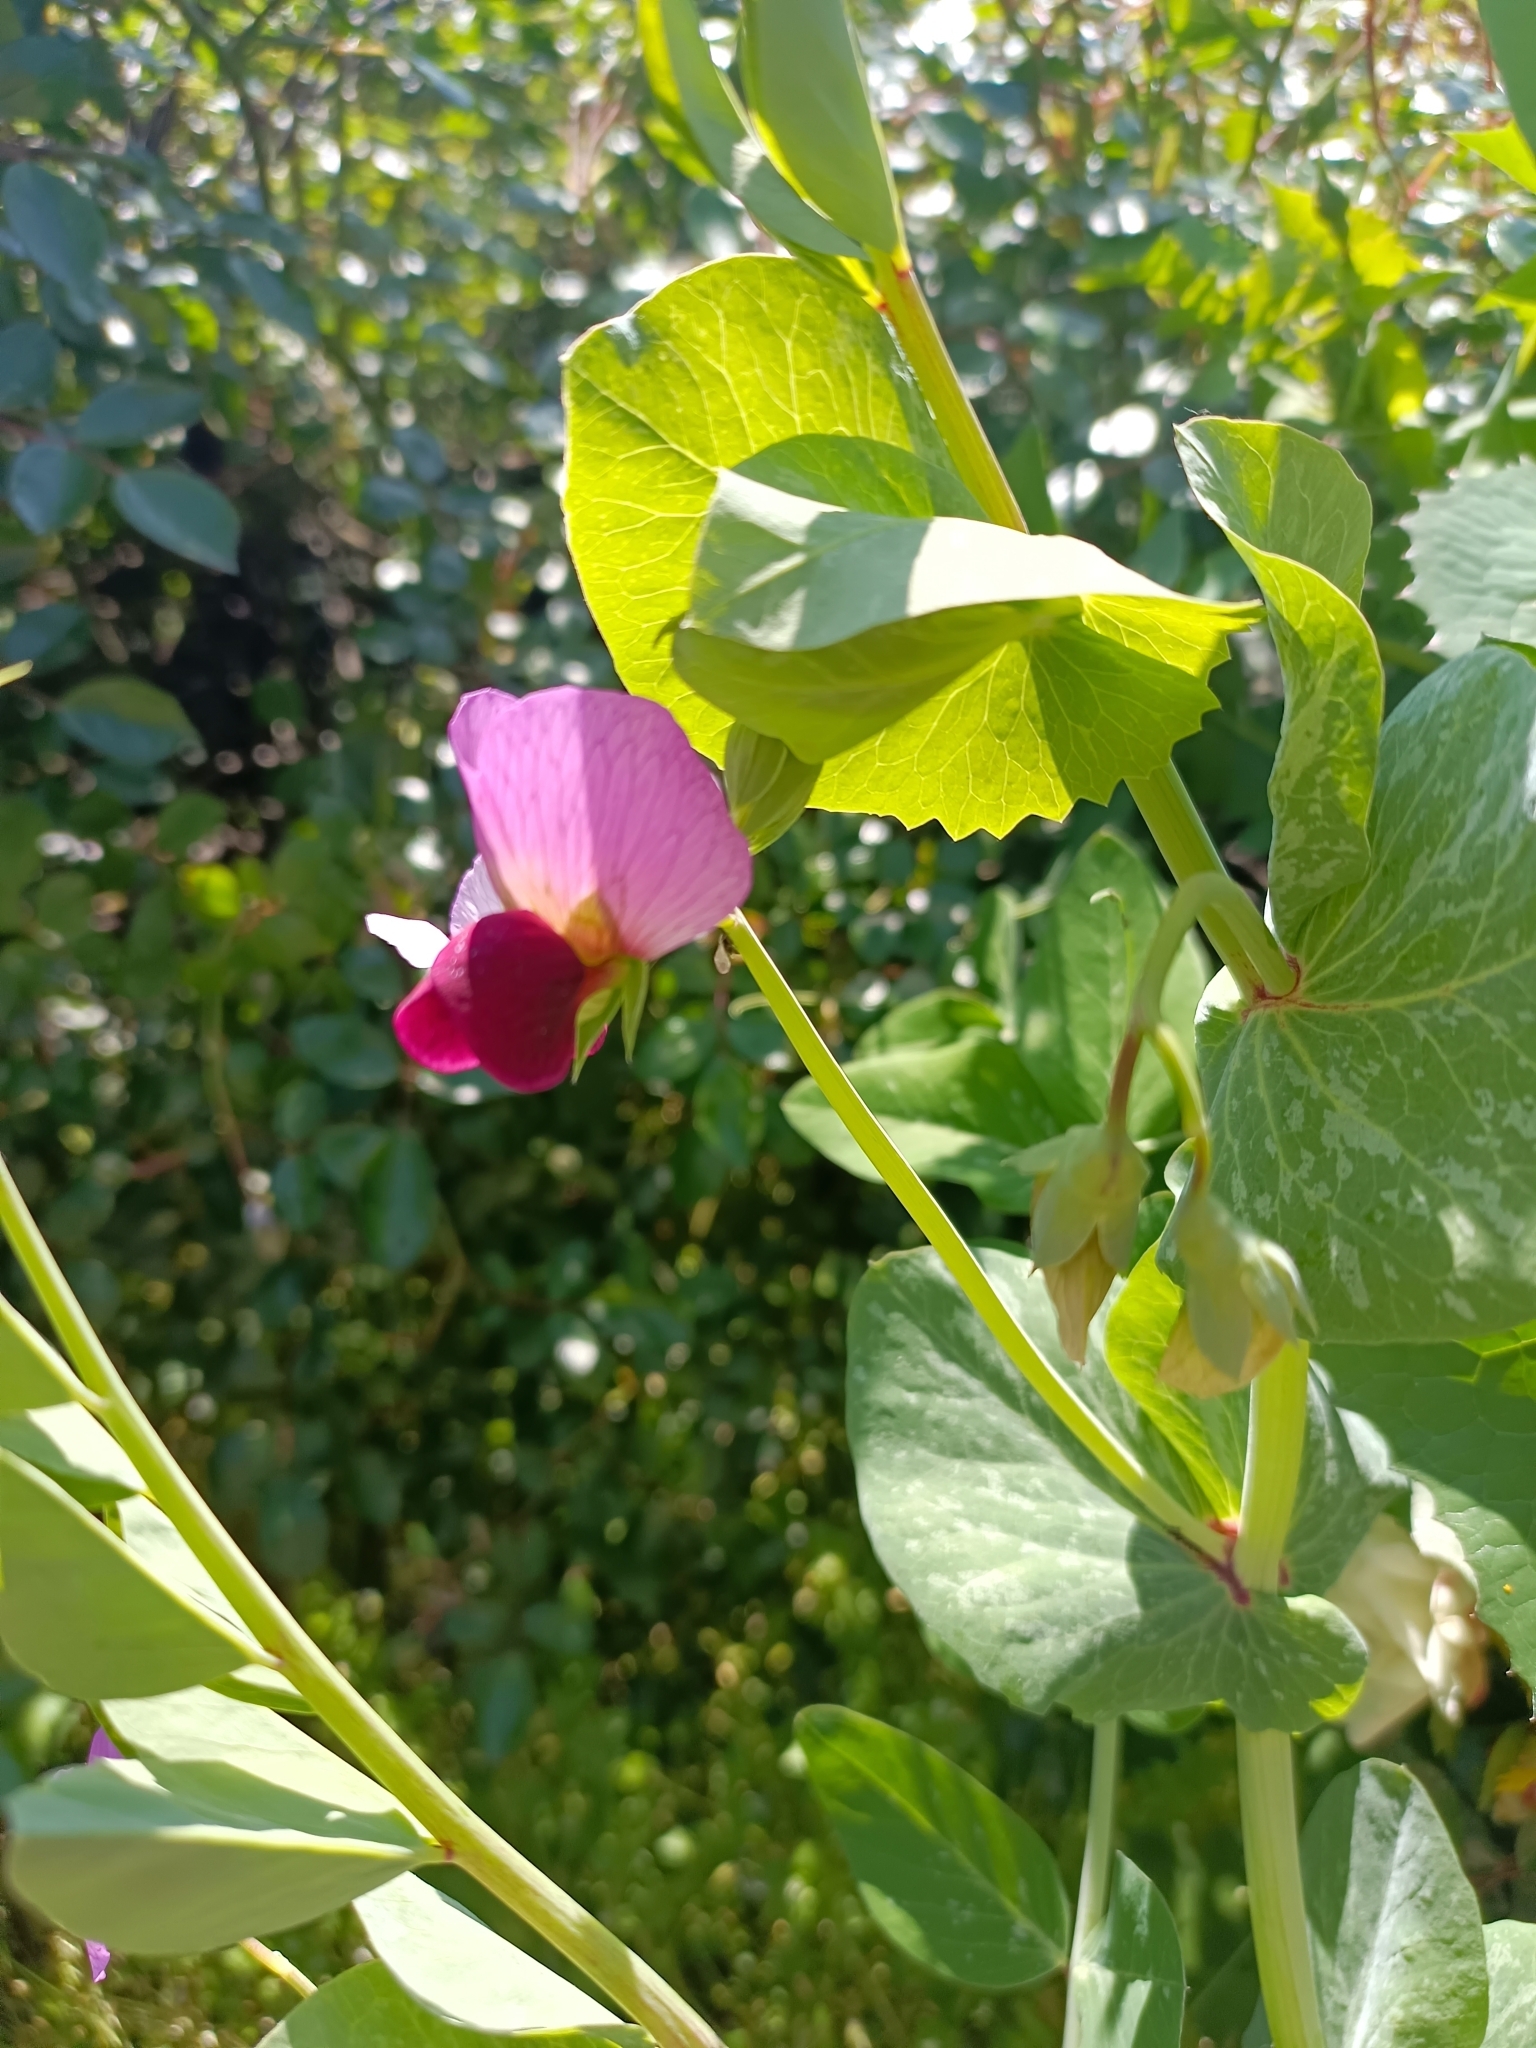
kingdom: Plantae
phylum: Tracheophyta
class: Magnoliopsida
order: Fabales
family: Fabaceae
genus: Lathyrus
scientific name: Lathyrus oleraceus
